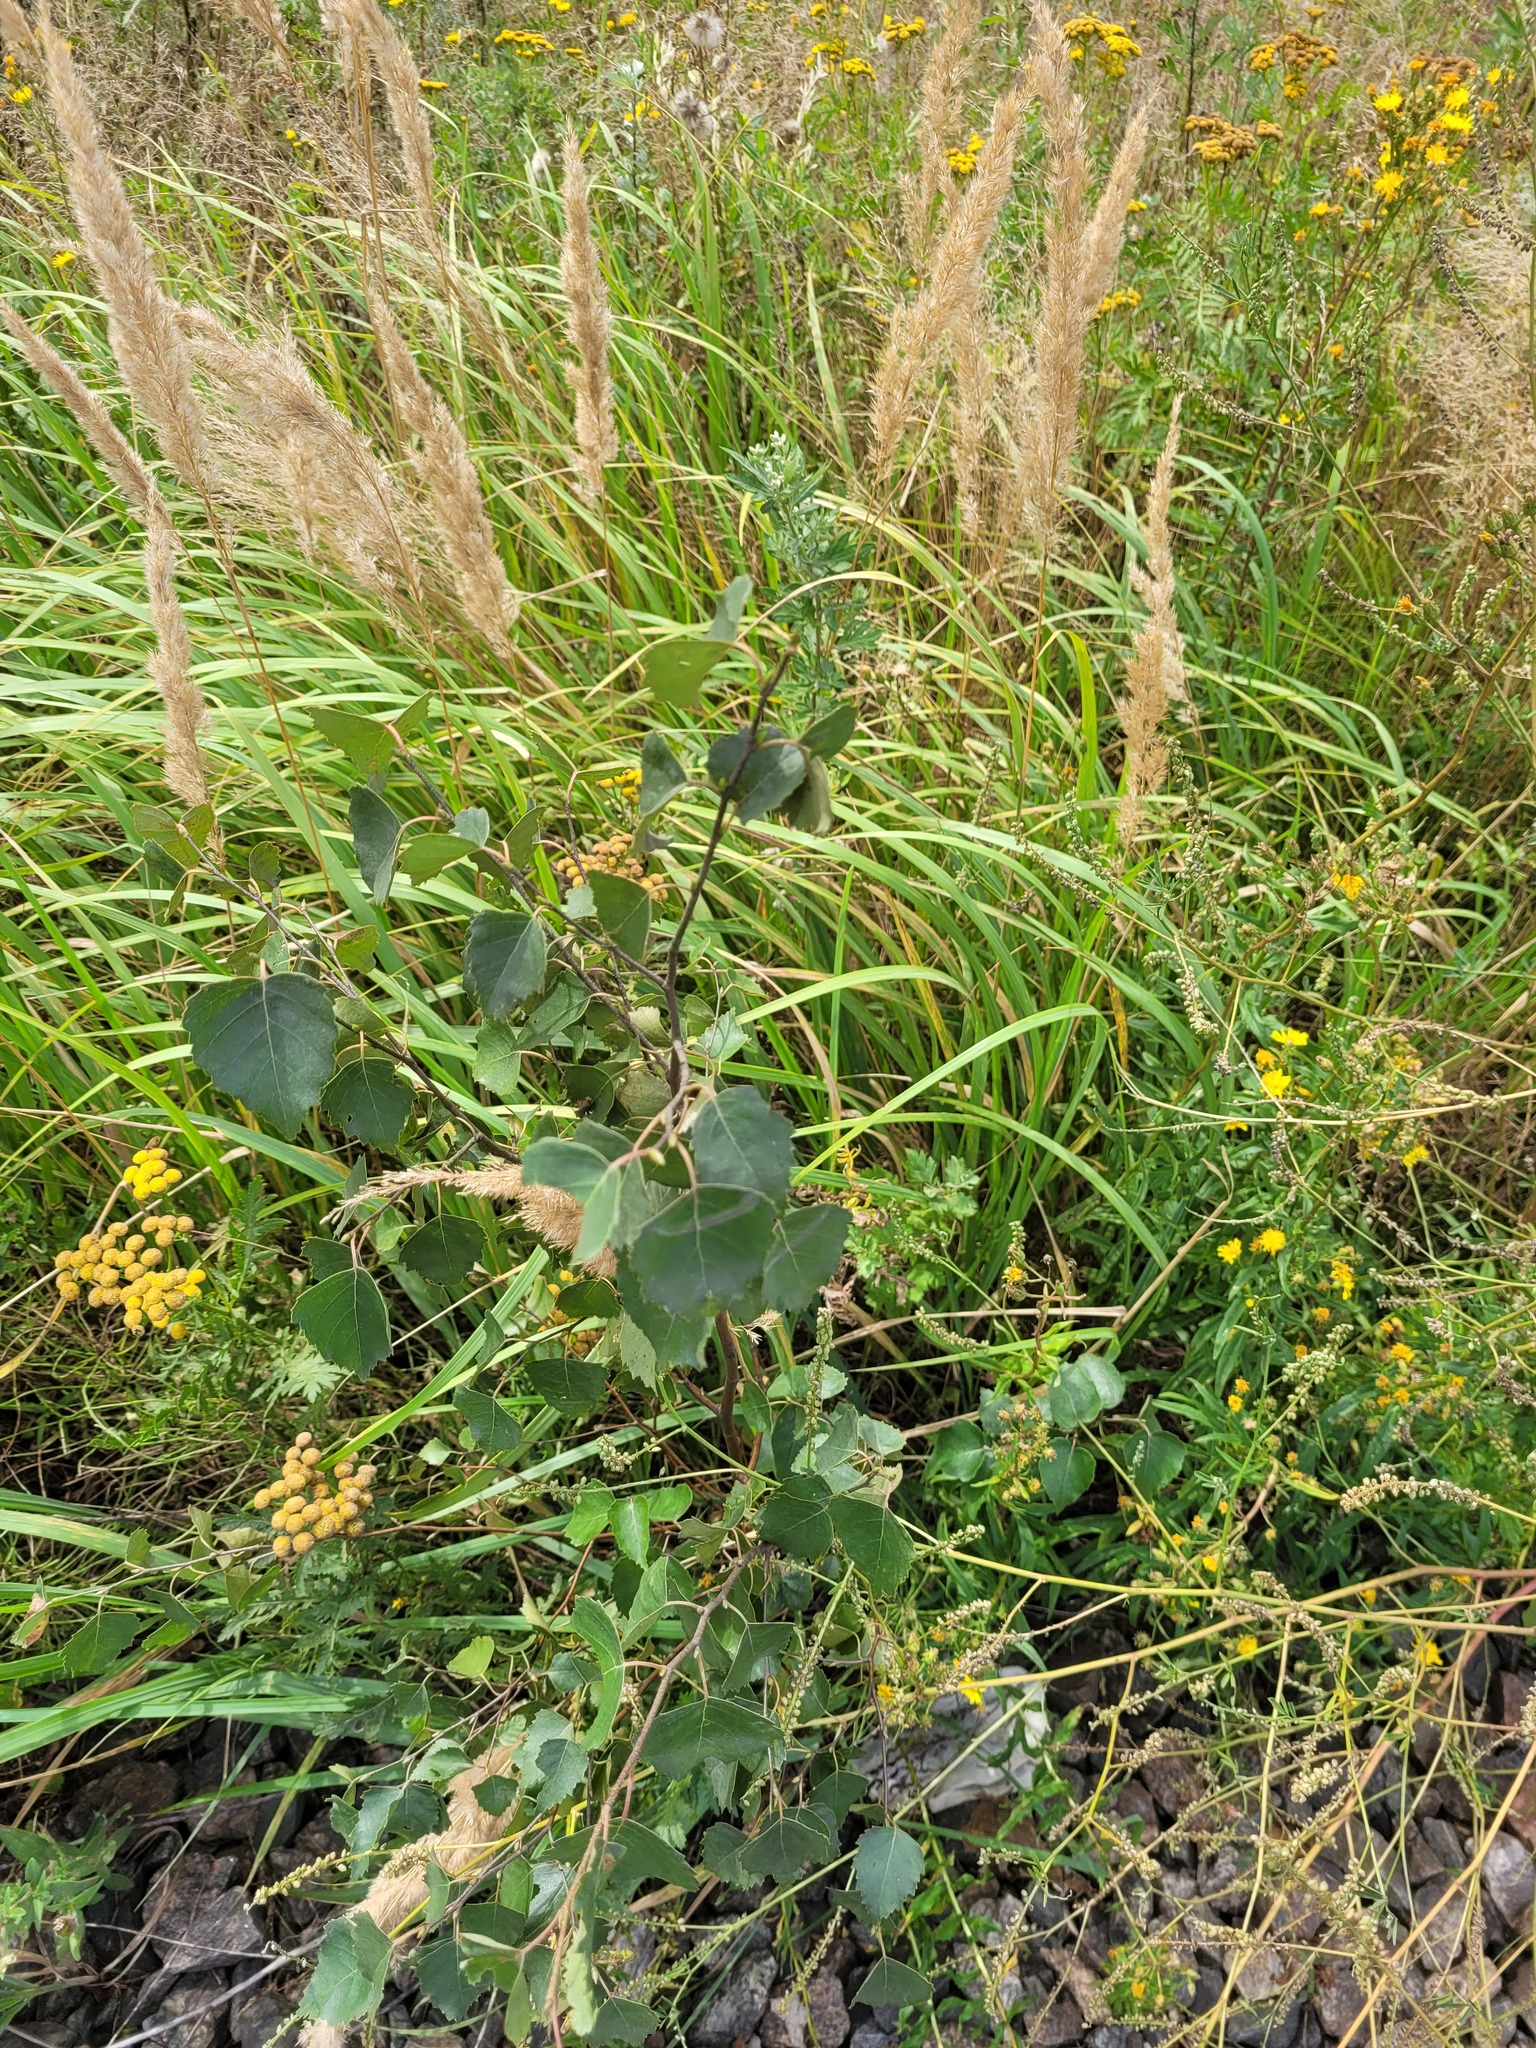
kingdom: Plantae
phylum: Tracheophyta
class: Magnoliopsida
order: Fagales
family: Betulaceae
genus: Betula
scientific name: Betula pendula
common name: Silver birch
